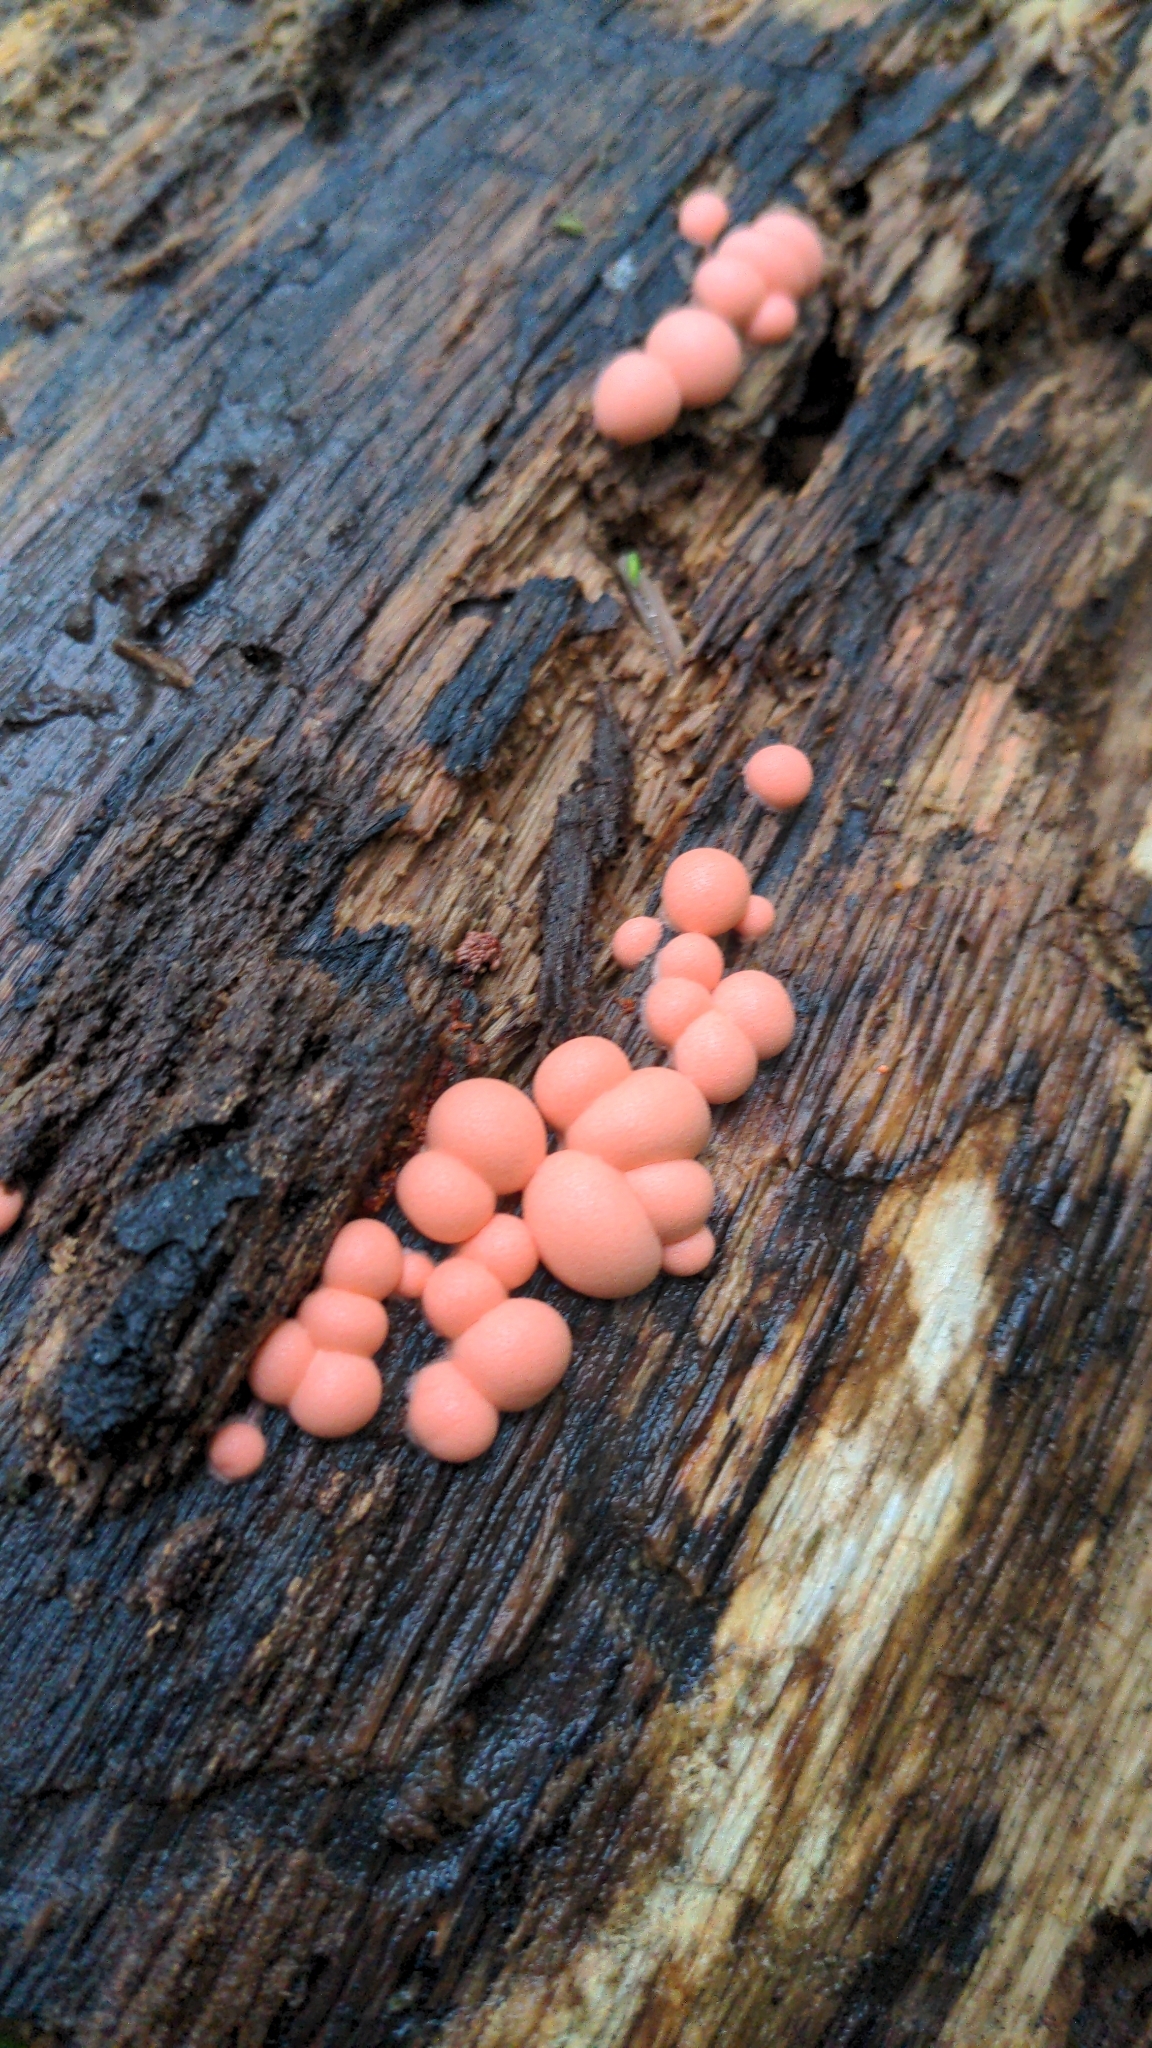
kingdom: Protozoa
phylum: Mycetozoa
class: Myxomycetes
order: Cribrariales
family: Tubiferaceae
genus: Lycogala
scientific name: Lycogala epidendrum
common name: Wolf's milk
